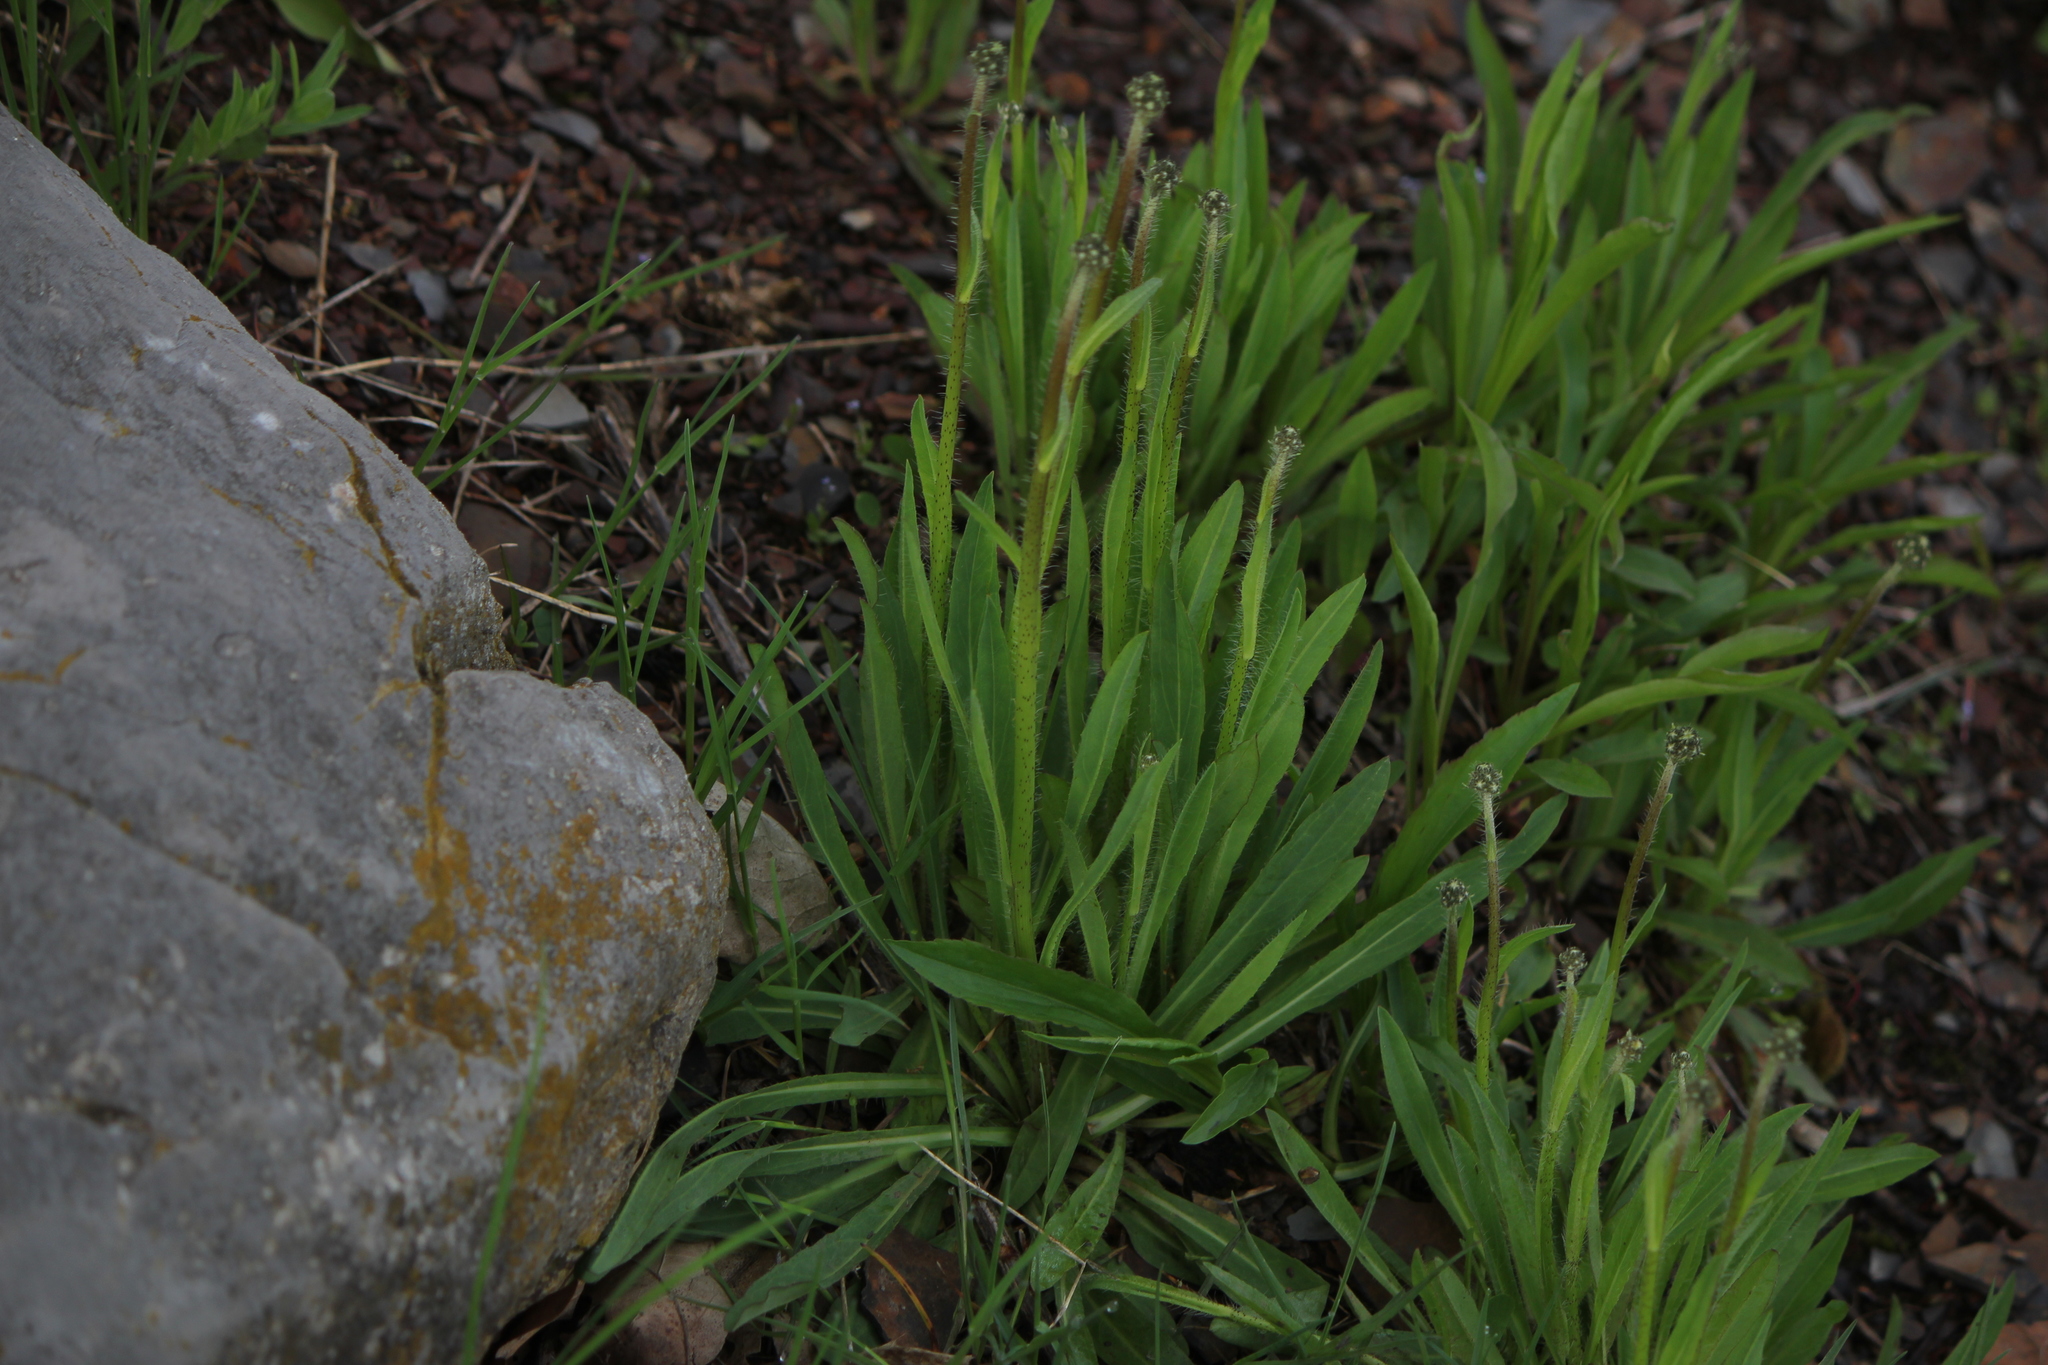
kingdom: Plantae
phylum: Tracheophyta
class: Magnoliopsida
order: Asterales
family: Asteraceae
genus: Pilosella
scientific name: Pilosella piloselloides
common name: Glaucous king-devil
